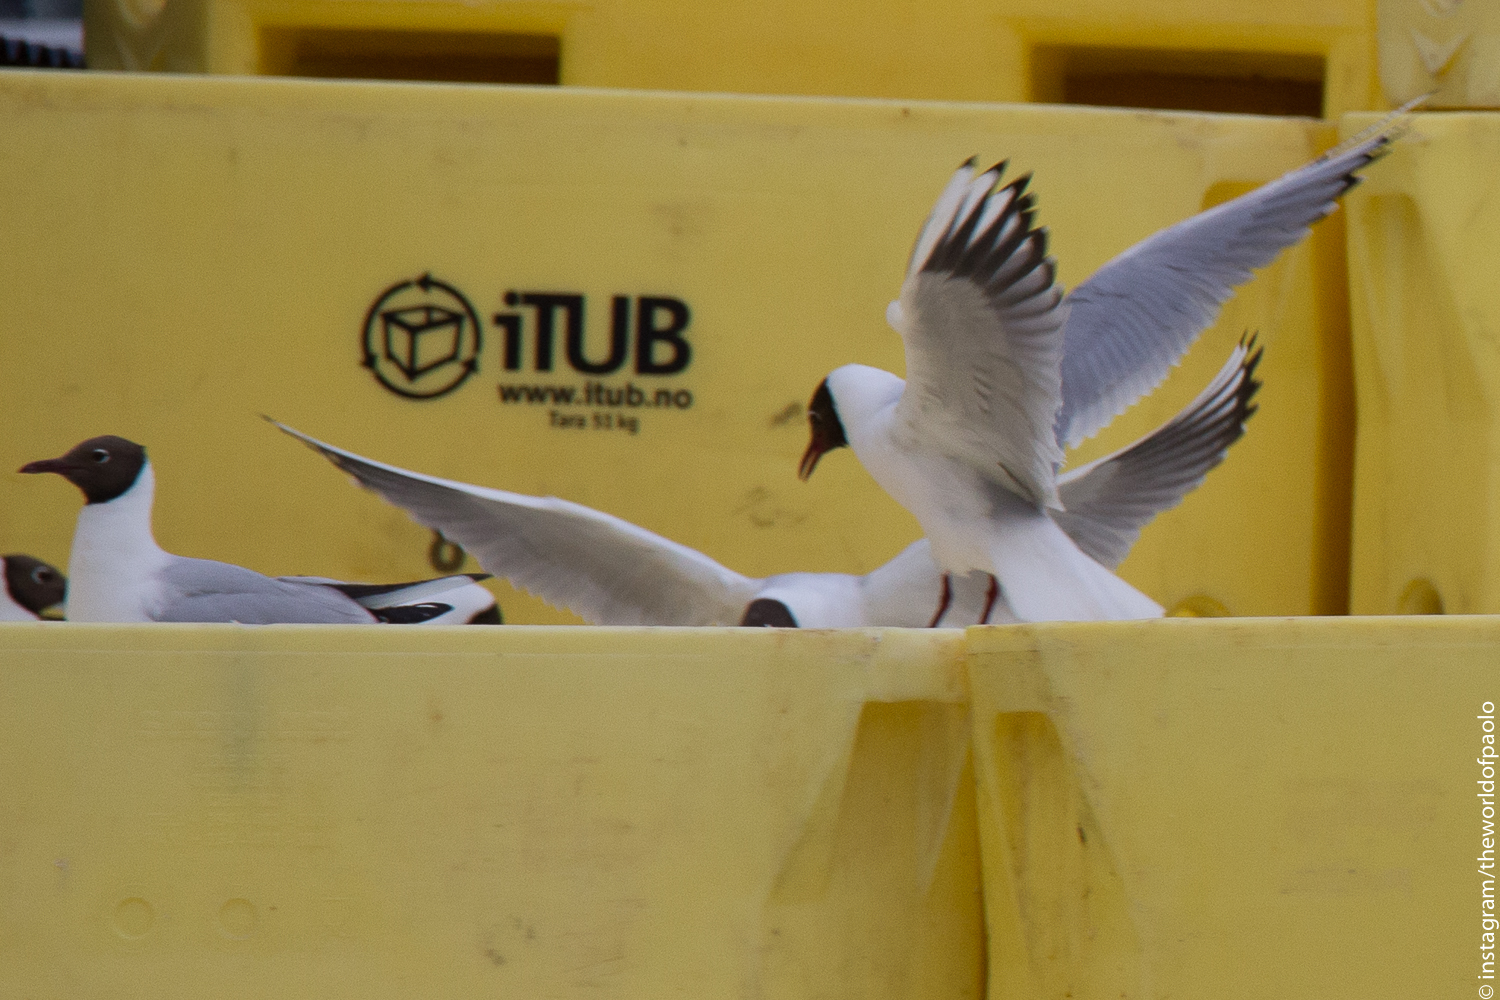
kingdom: Animalia
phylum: Chordata
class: Aves
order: Charadriiformes
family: Laridae
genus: Chroicocephalus
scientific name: Chroicocephalus ridibundus
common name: Black-headed gull
